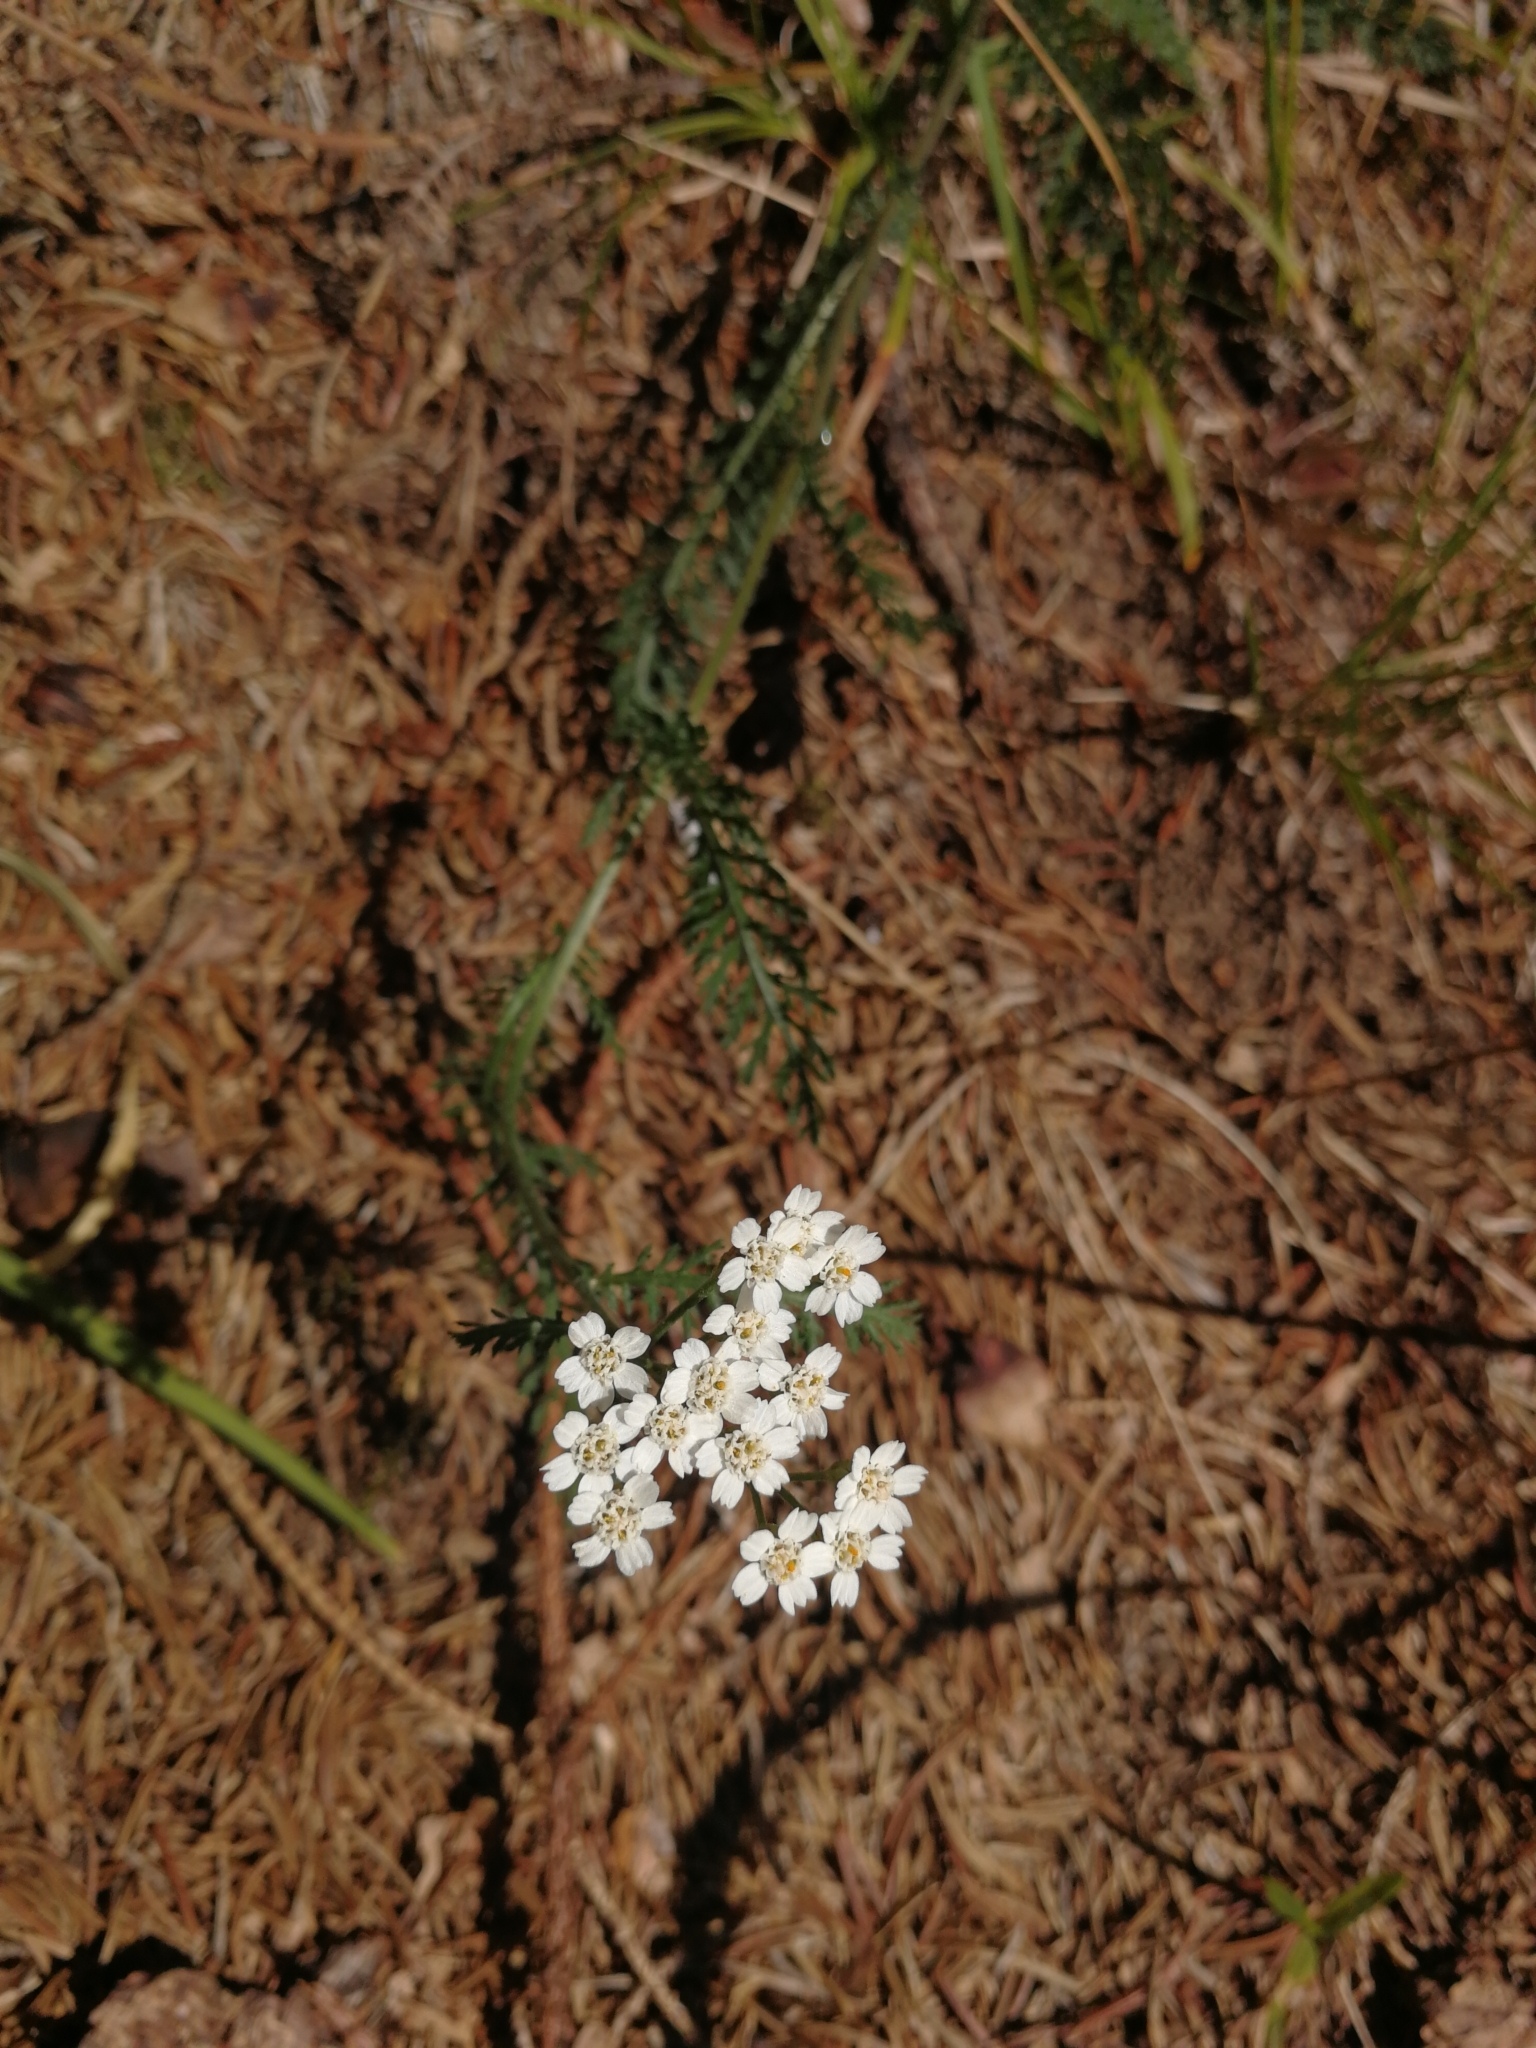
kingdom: Plantae
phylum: Tracheophyta
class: Magnoliopsida
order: Asterales
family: Asteraceae
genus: Achillea
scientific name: Achillea millefolium
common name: Yarrow
